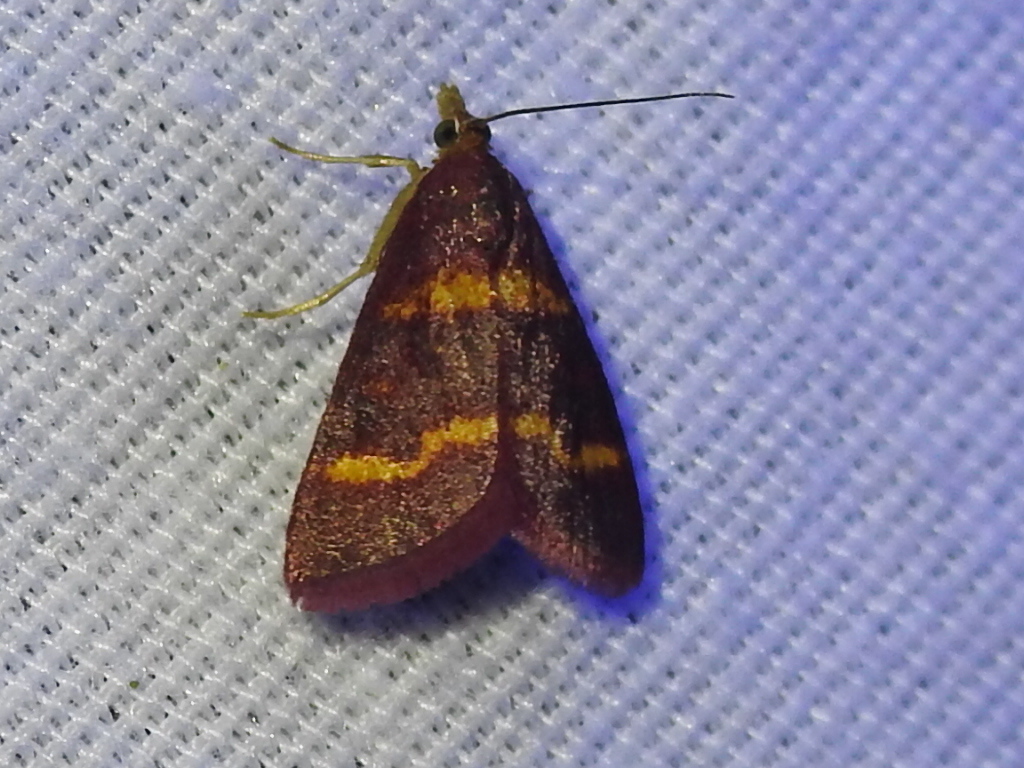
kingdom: Animalia
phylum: Arthropoda
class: Insecta
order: Lepidoptera
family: Crambidae
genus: Pyrausta
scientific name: Pyrausta tyralis
